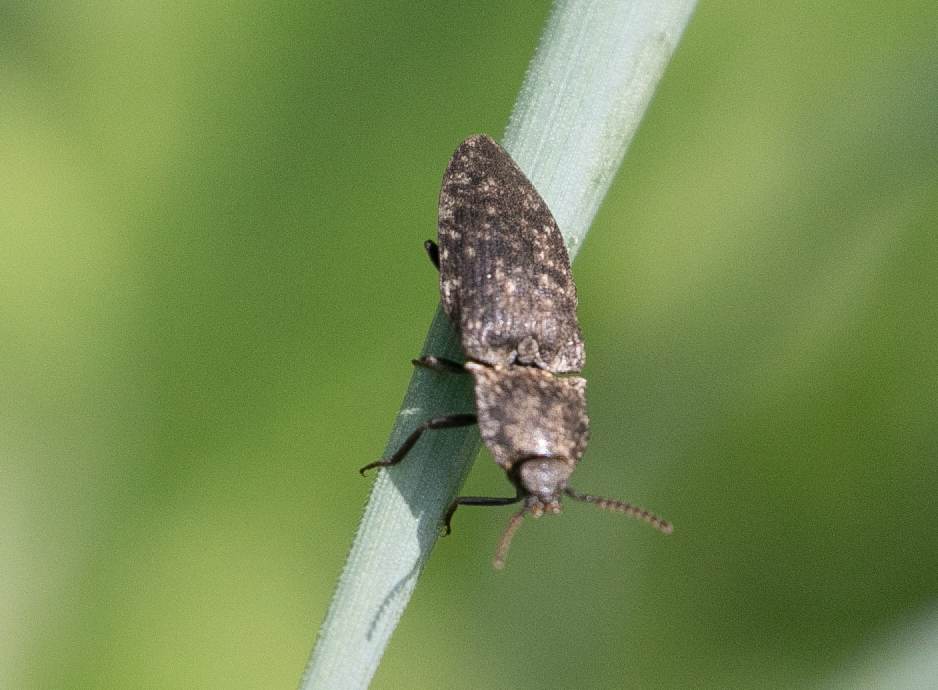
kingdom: Animalia
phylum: Arthropoda
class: Insecta
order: Coleoptera
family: Elateridae
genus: Agrypnus
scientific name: Agrypnus murinus
